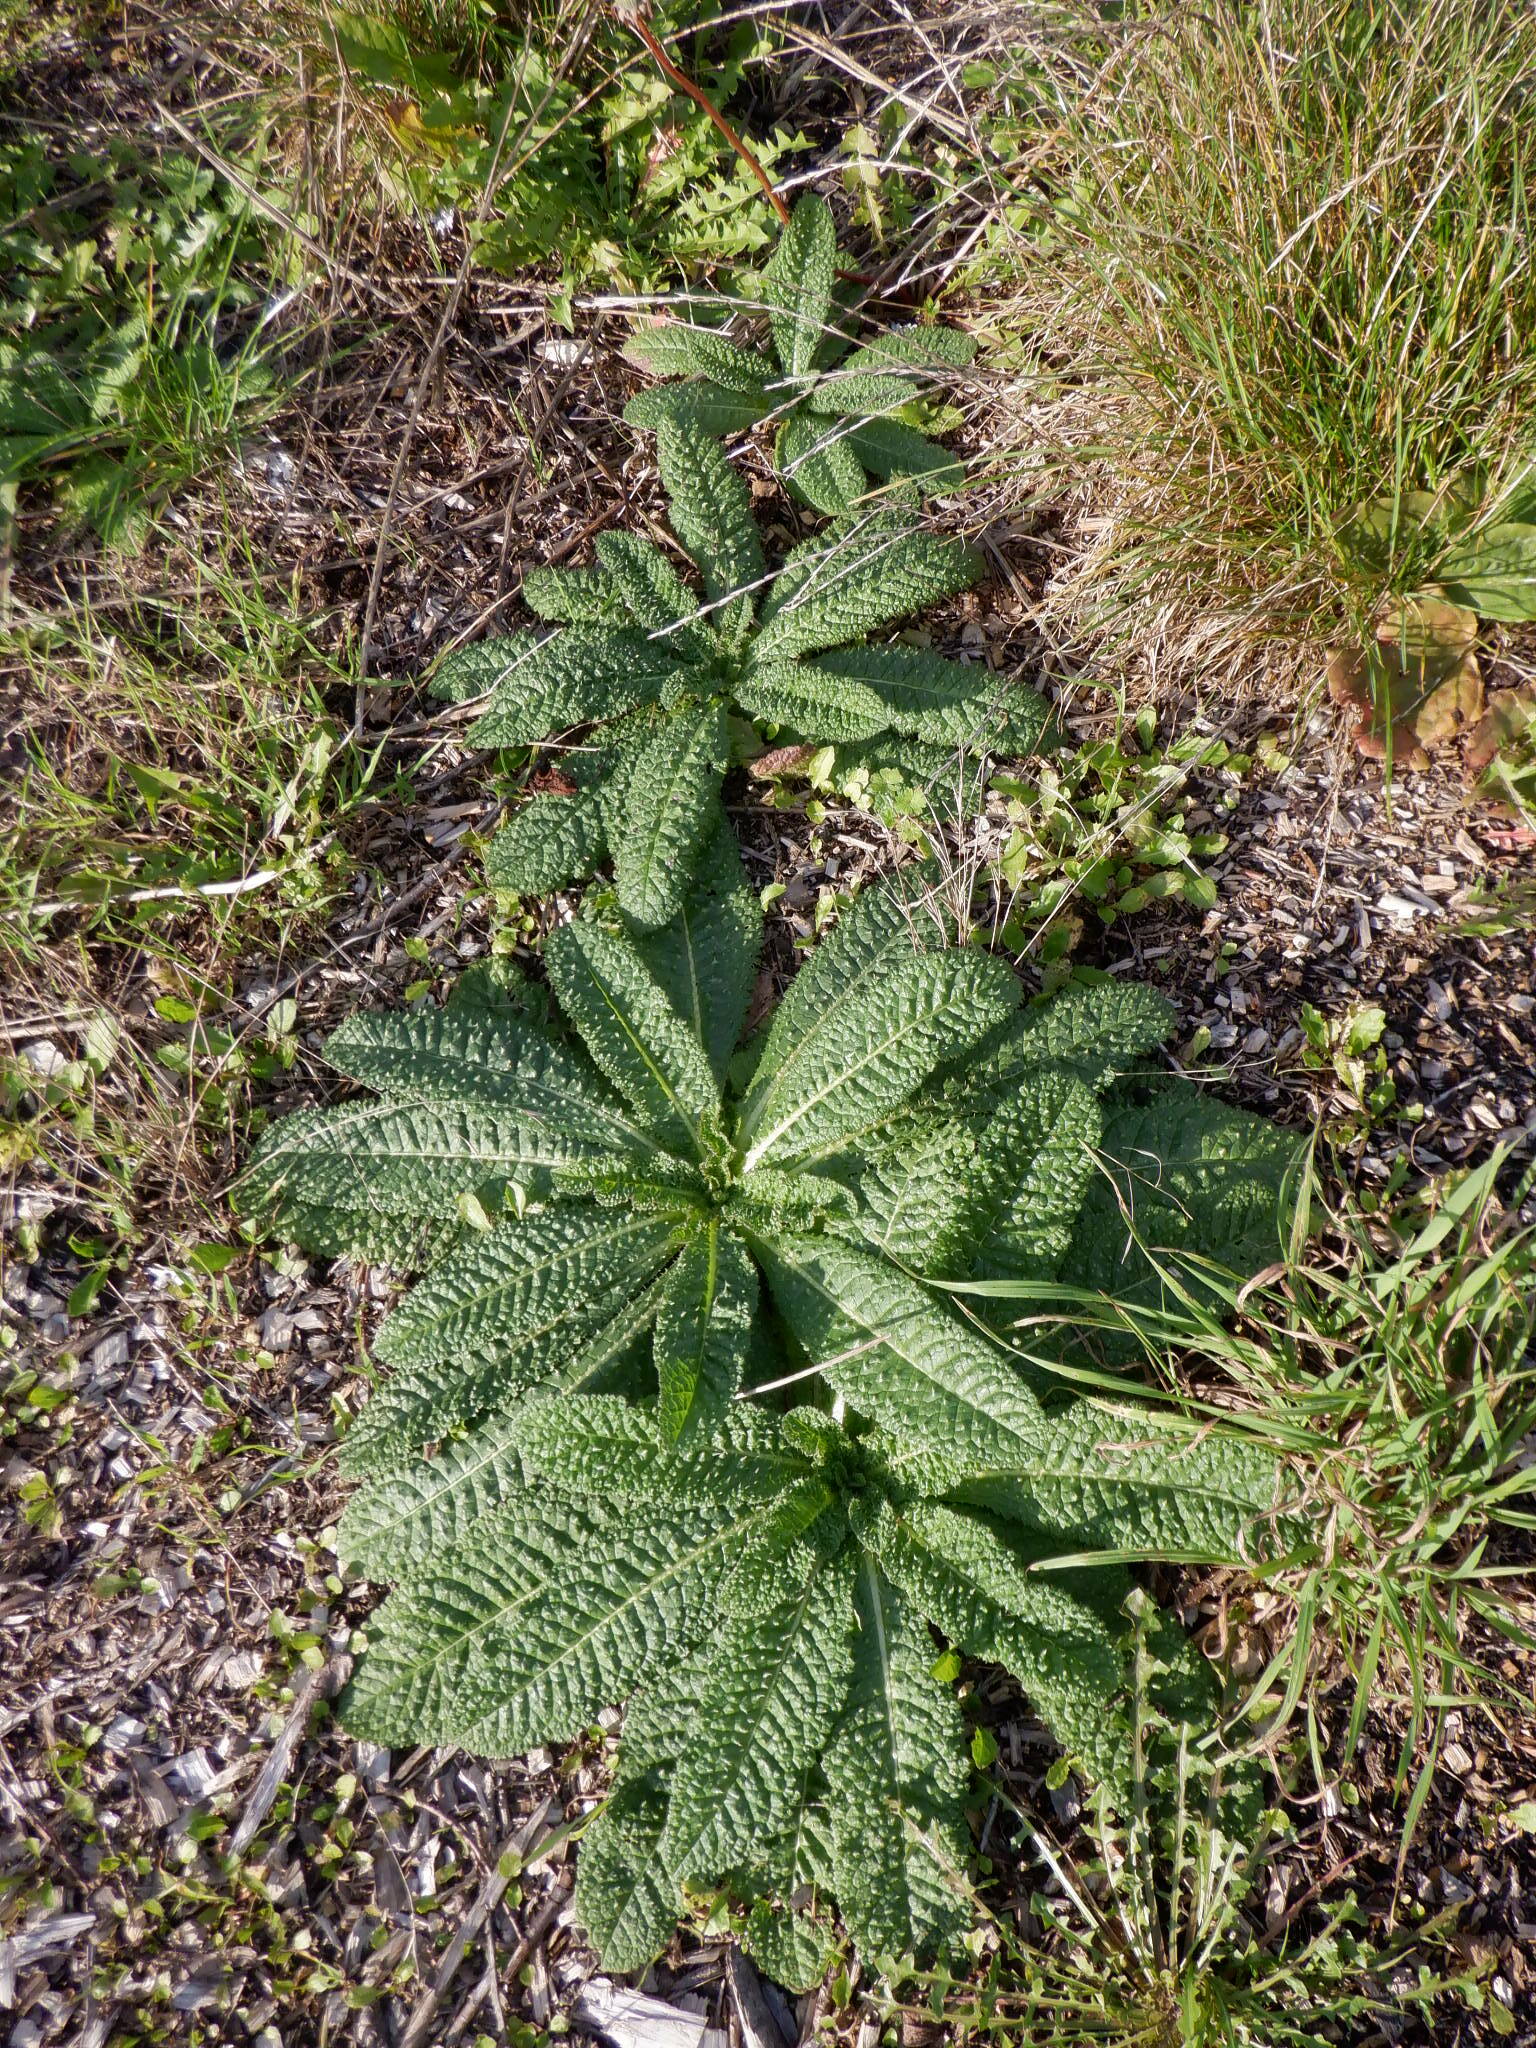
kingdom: Plantae
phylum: Tracheophyta
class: Magnoliopsida
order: Dipsacales
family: Caprifoliaceae
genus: Dipsacus
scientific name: Dipsacus fullonum
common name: Teasel
